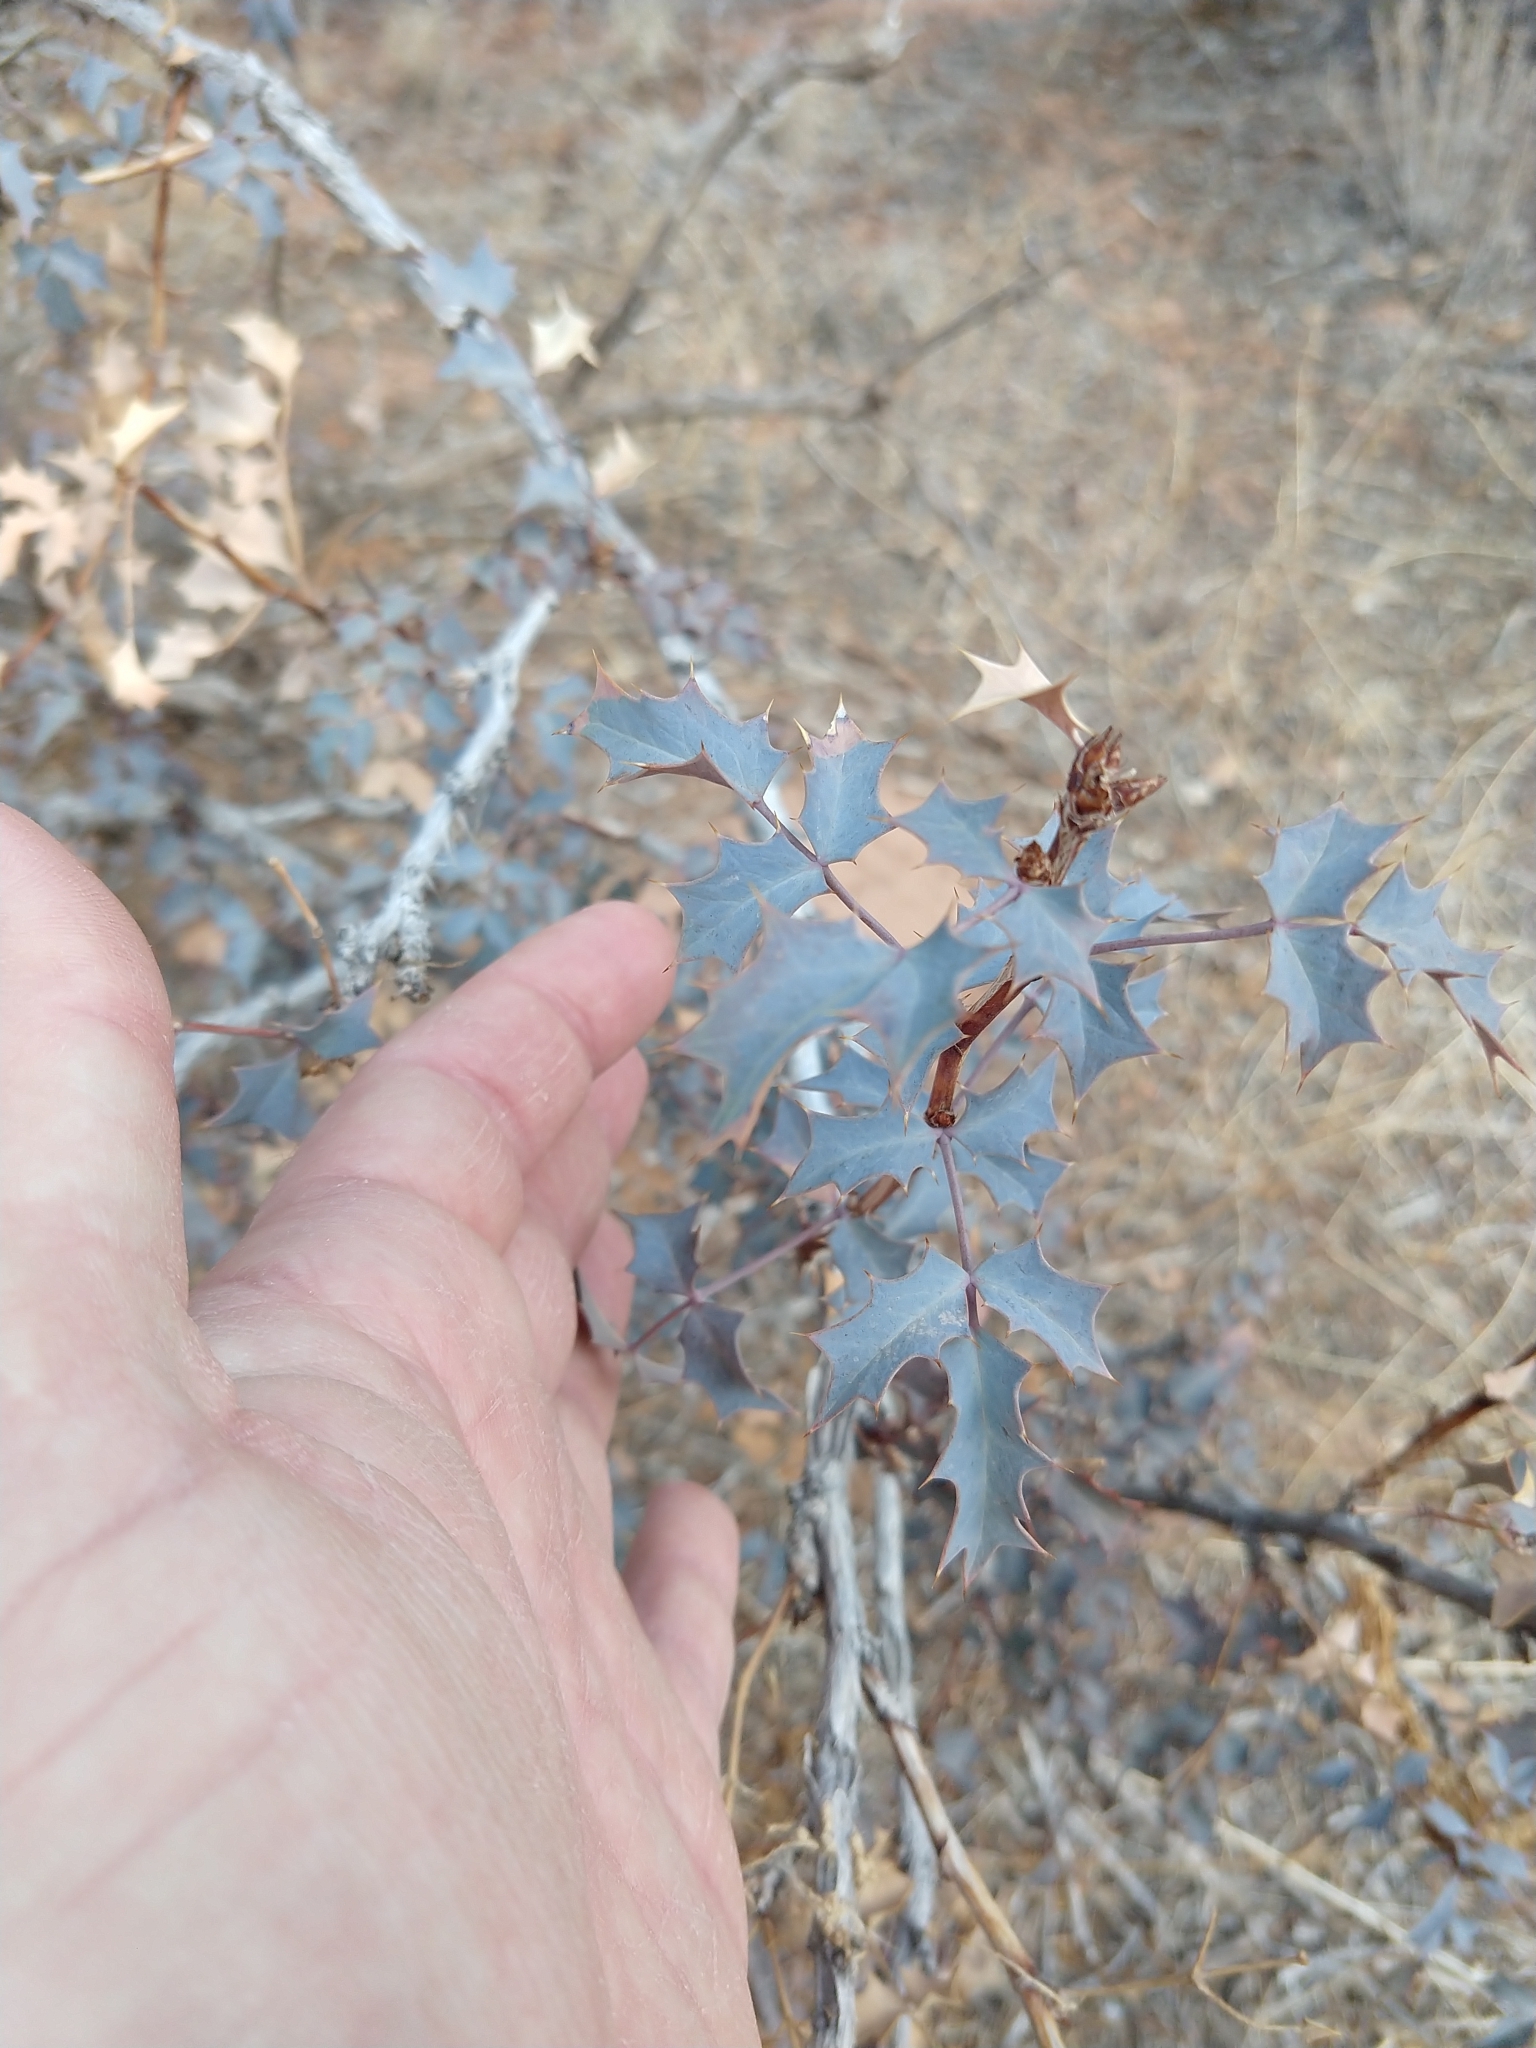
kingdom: Plantae
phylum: Tracheophyta
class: Magnoliopsida
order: Ranunculales
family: Berberidaceae
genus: Alloberberis
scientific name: Alloberberis fremontii
